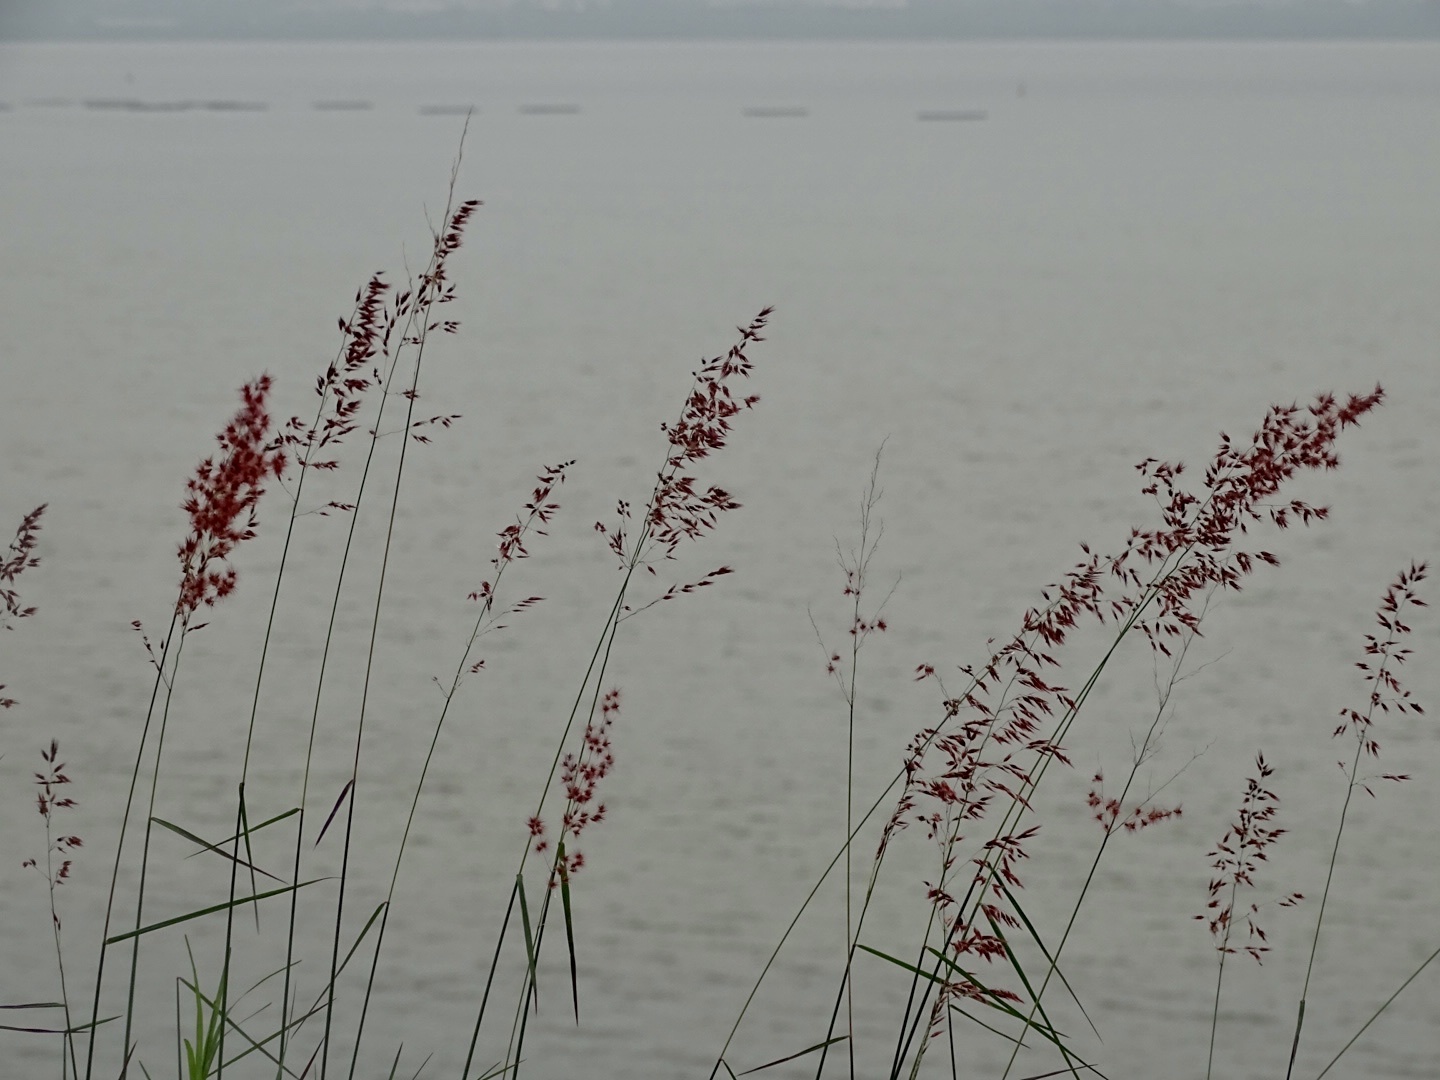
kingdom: Plantae
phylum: Tracheophyta
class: Liliopsida
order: Poales
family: Poaceae
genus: Melinis
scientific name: Melinis repens
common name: Rose natal grass
